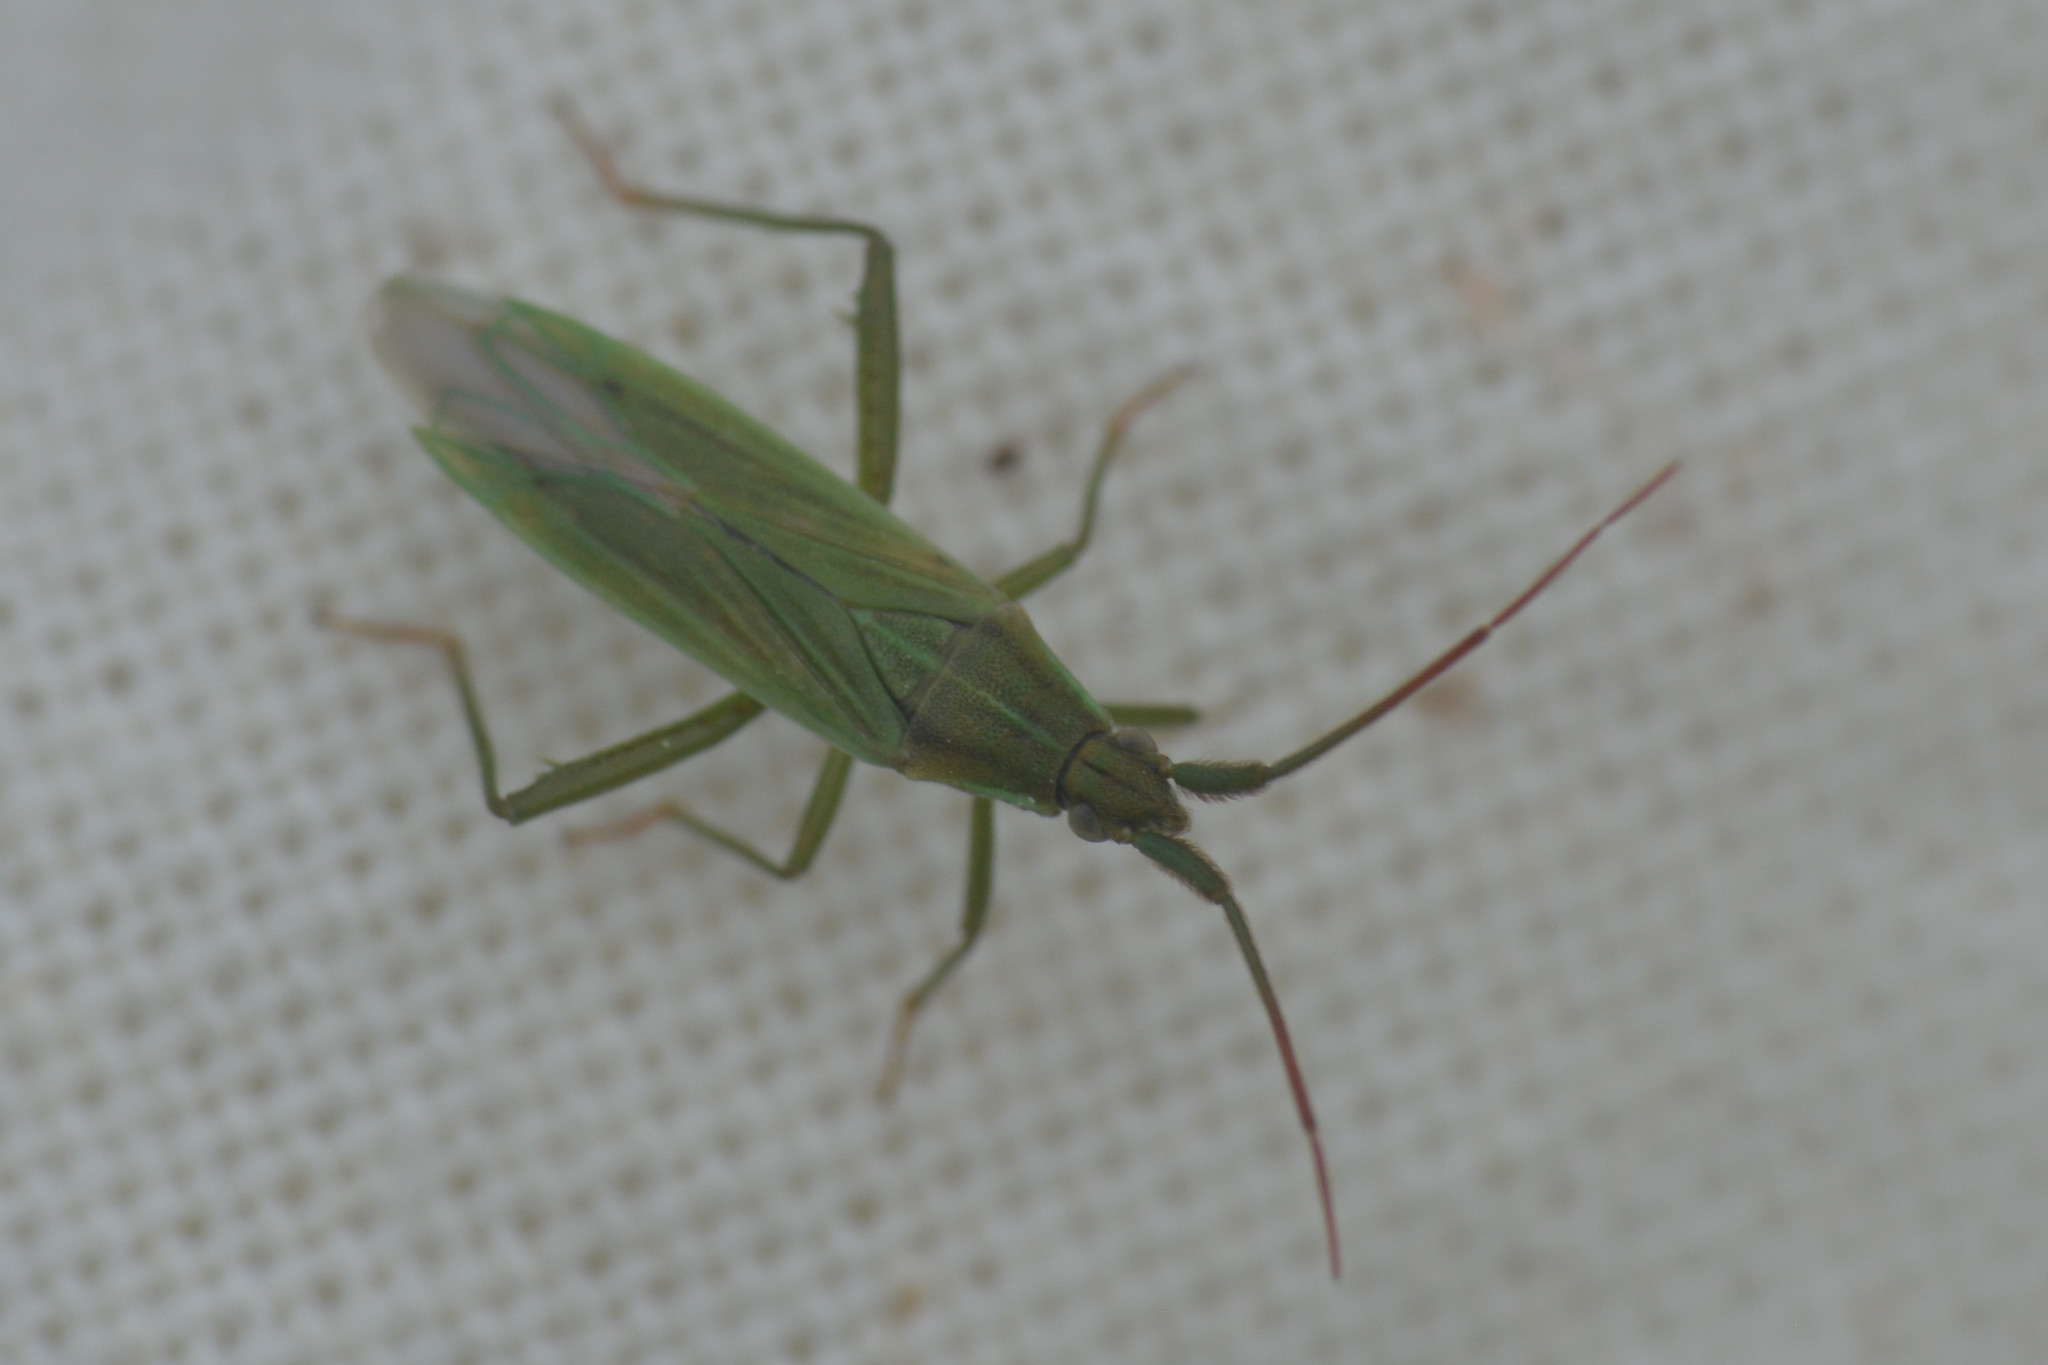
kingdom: Animalia
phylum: Arthropoda
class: Insecta
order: Hemiptera
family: Miridae
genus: Stenodema
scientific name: Stenodema calcarata
